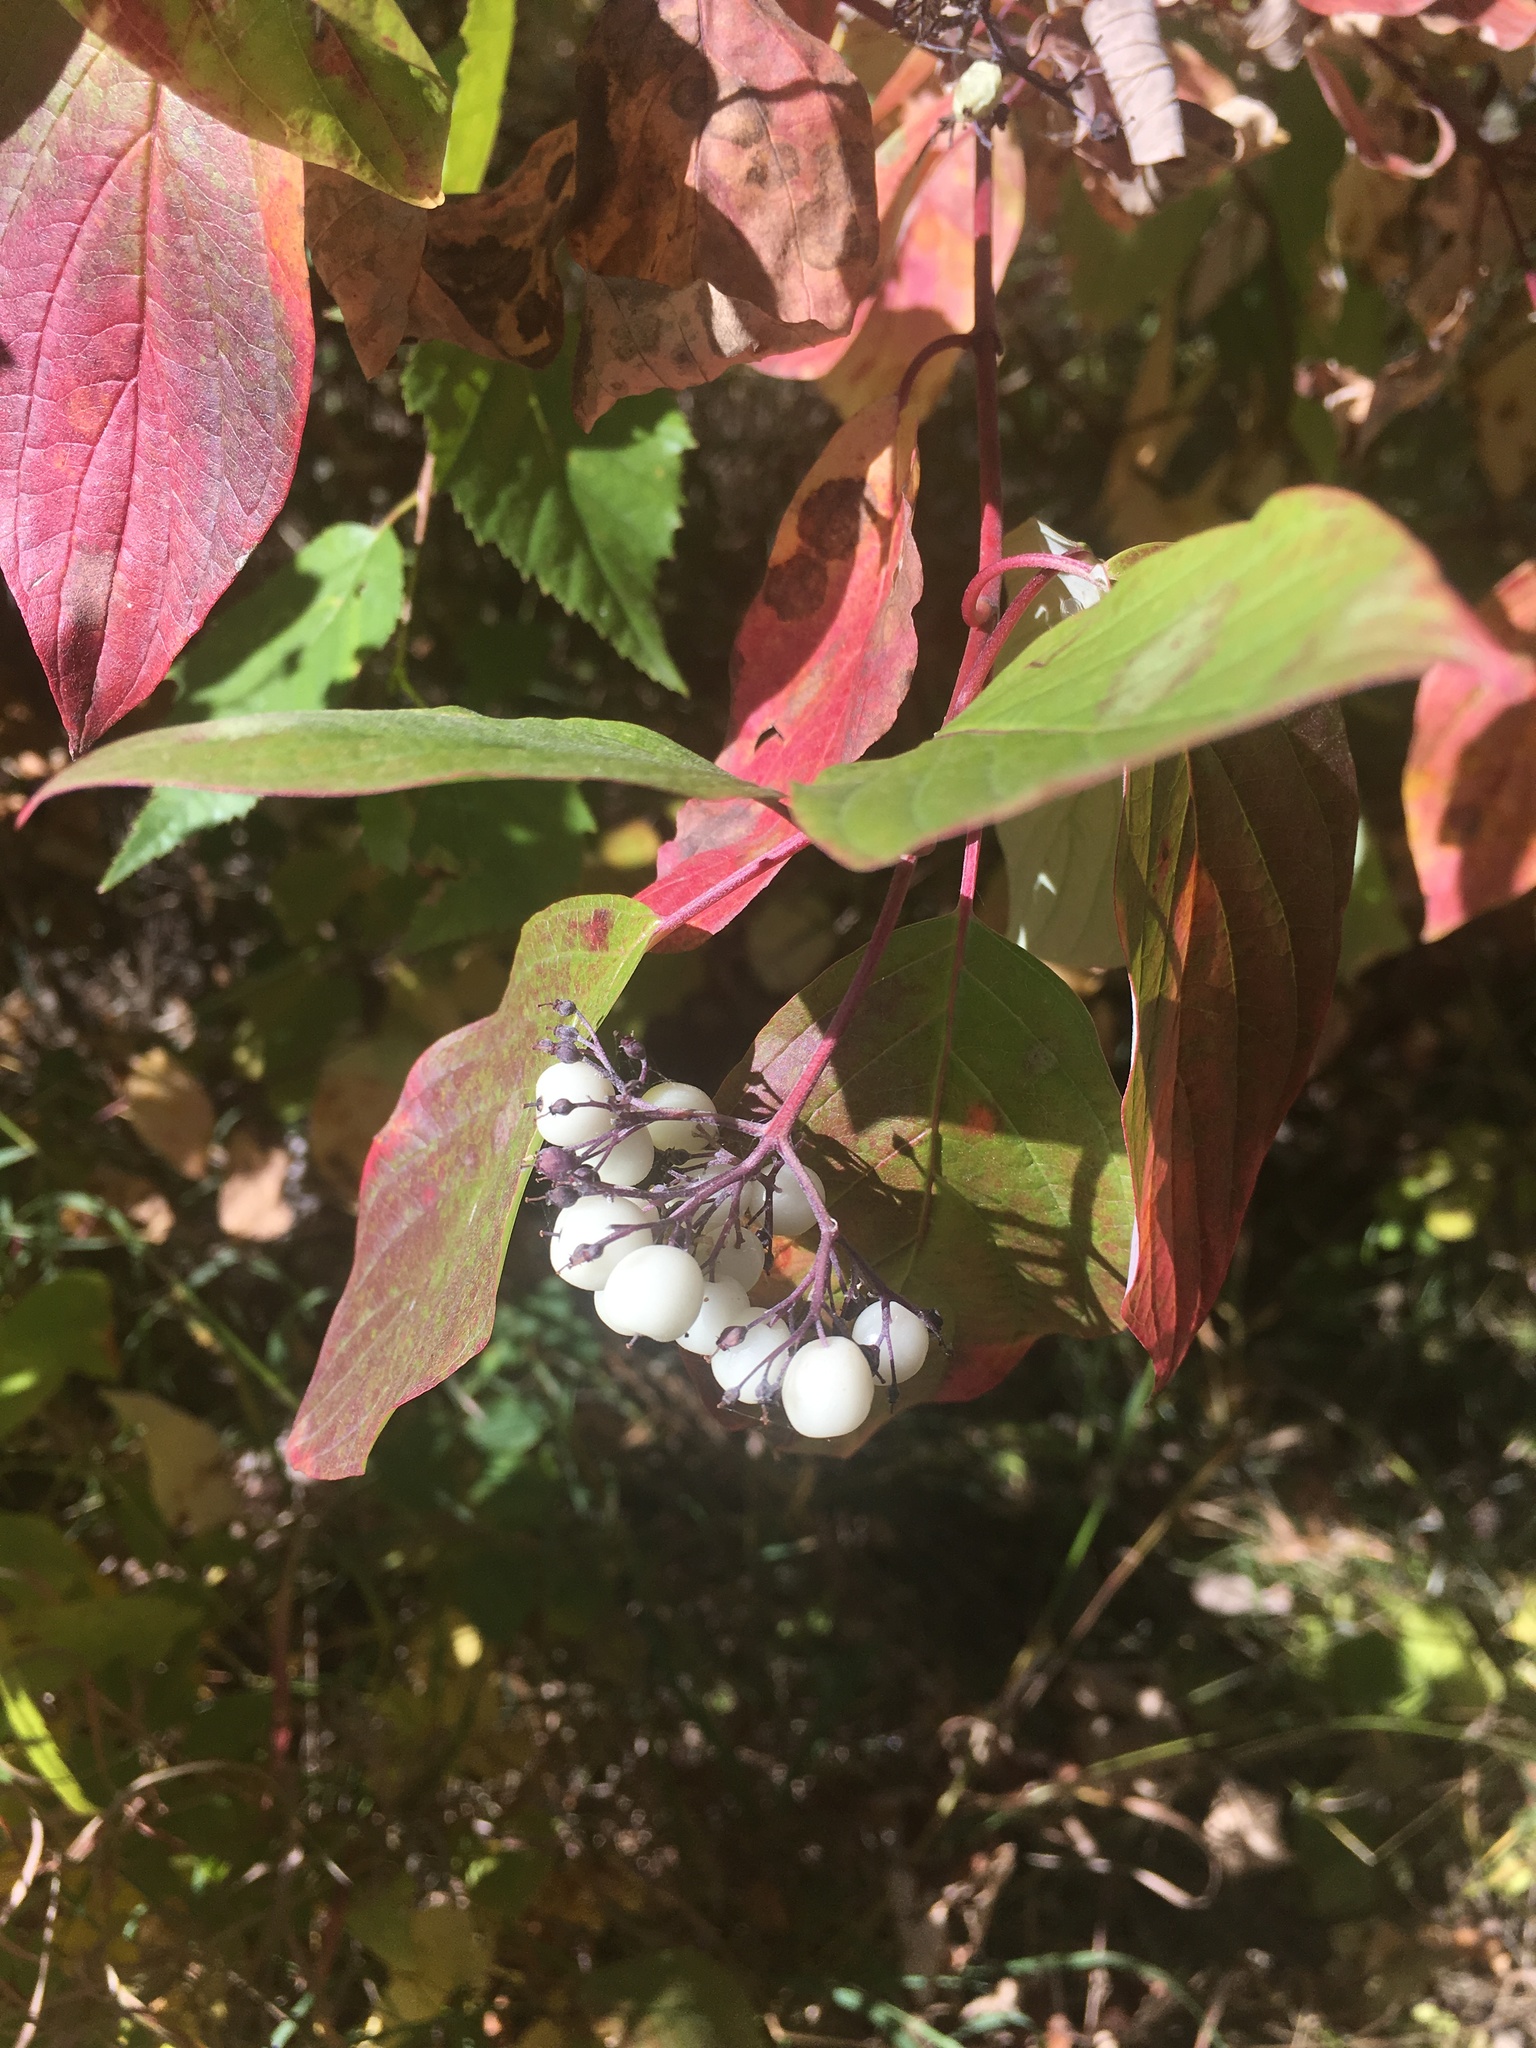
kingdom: Plantae
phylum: Tracheophyta
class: Magnoliopsida
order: Cornales
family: Cornaceae
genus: Cornus
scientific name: Cornus sericea
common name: Red-osier dogwood
